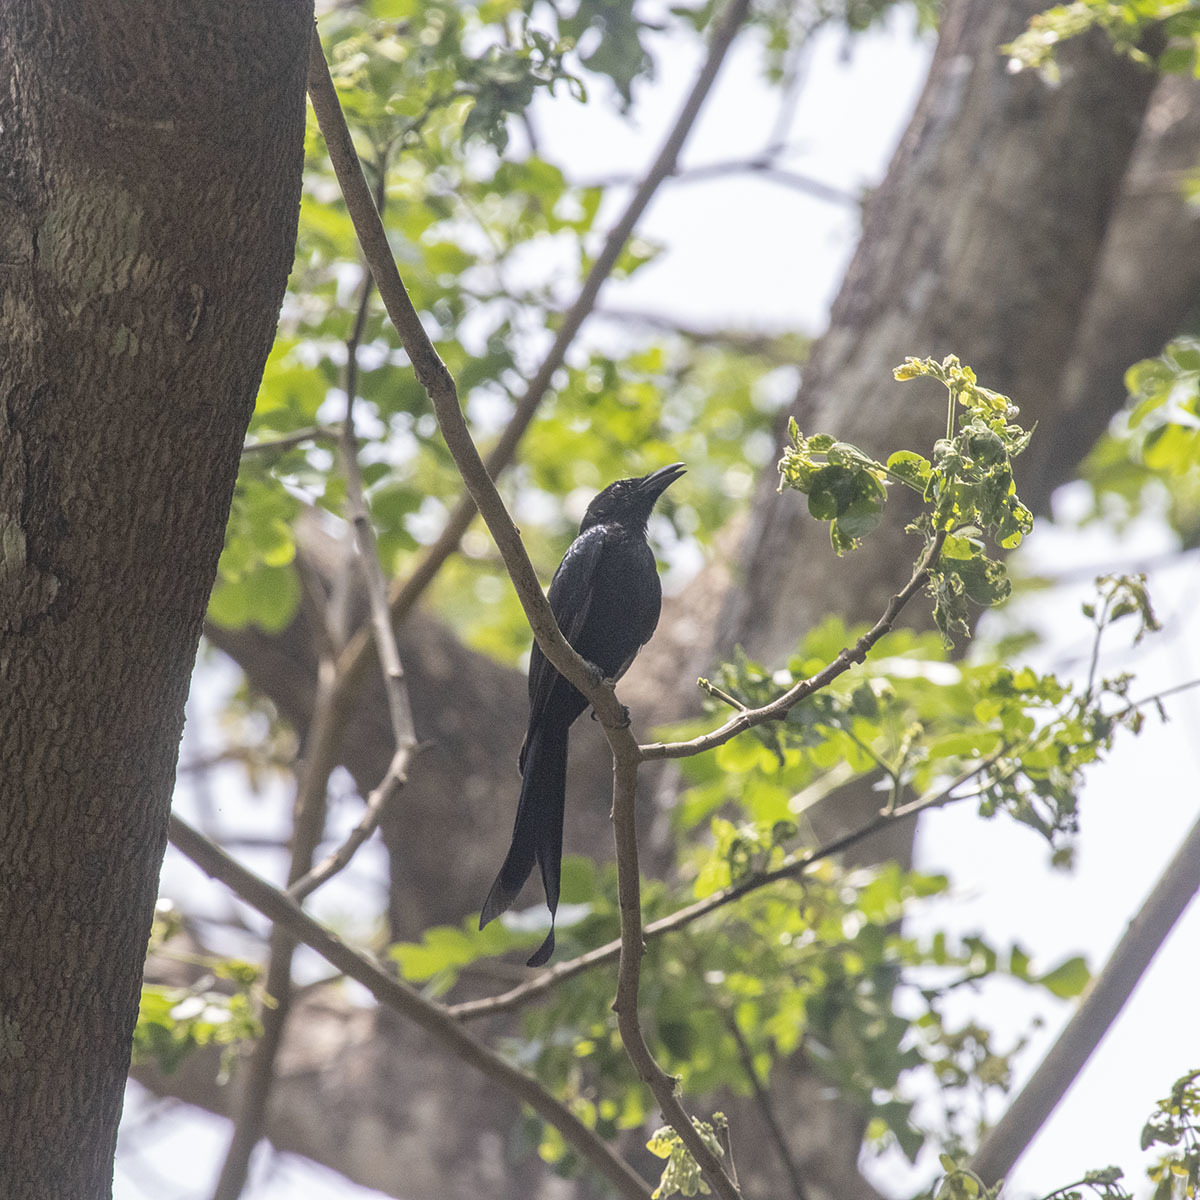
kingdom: Animalia
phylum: Chordata
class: Aves
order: Passeriformes
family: Dicruridae
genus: Dicrurus
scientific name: Dicrurus andamanensis
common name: Andaman drongo
